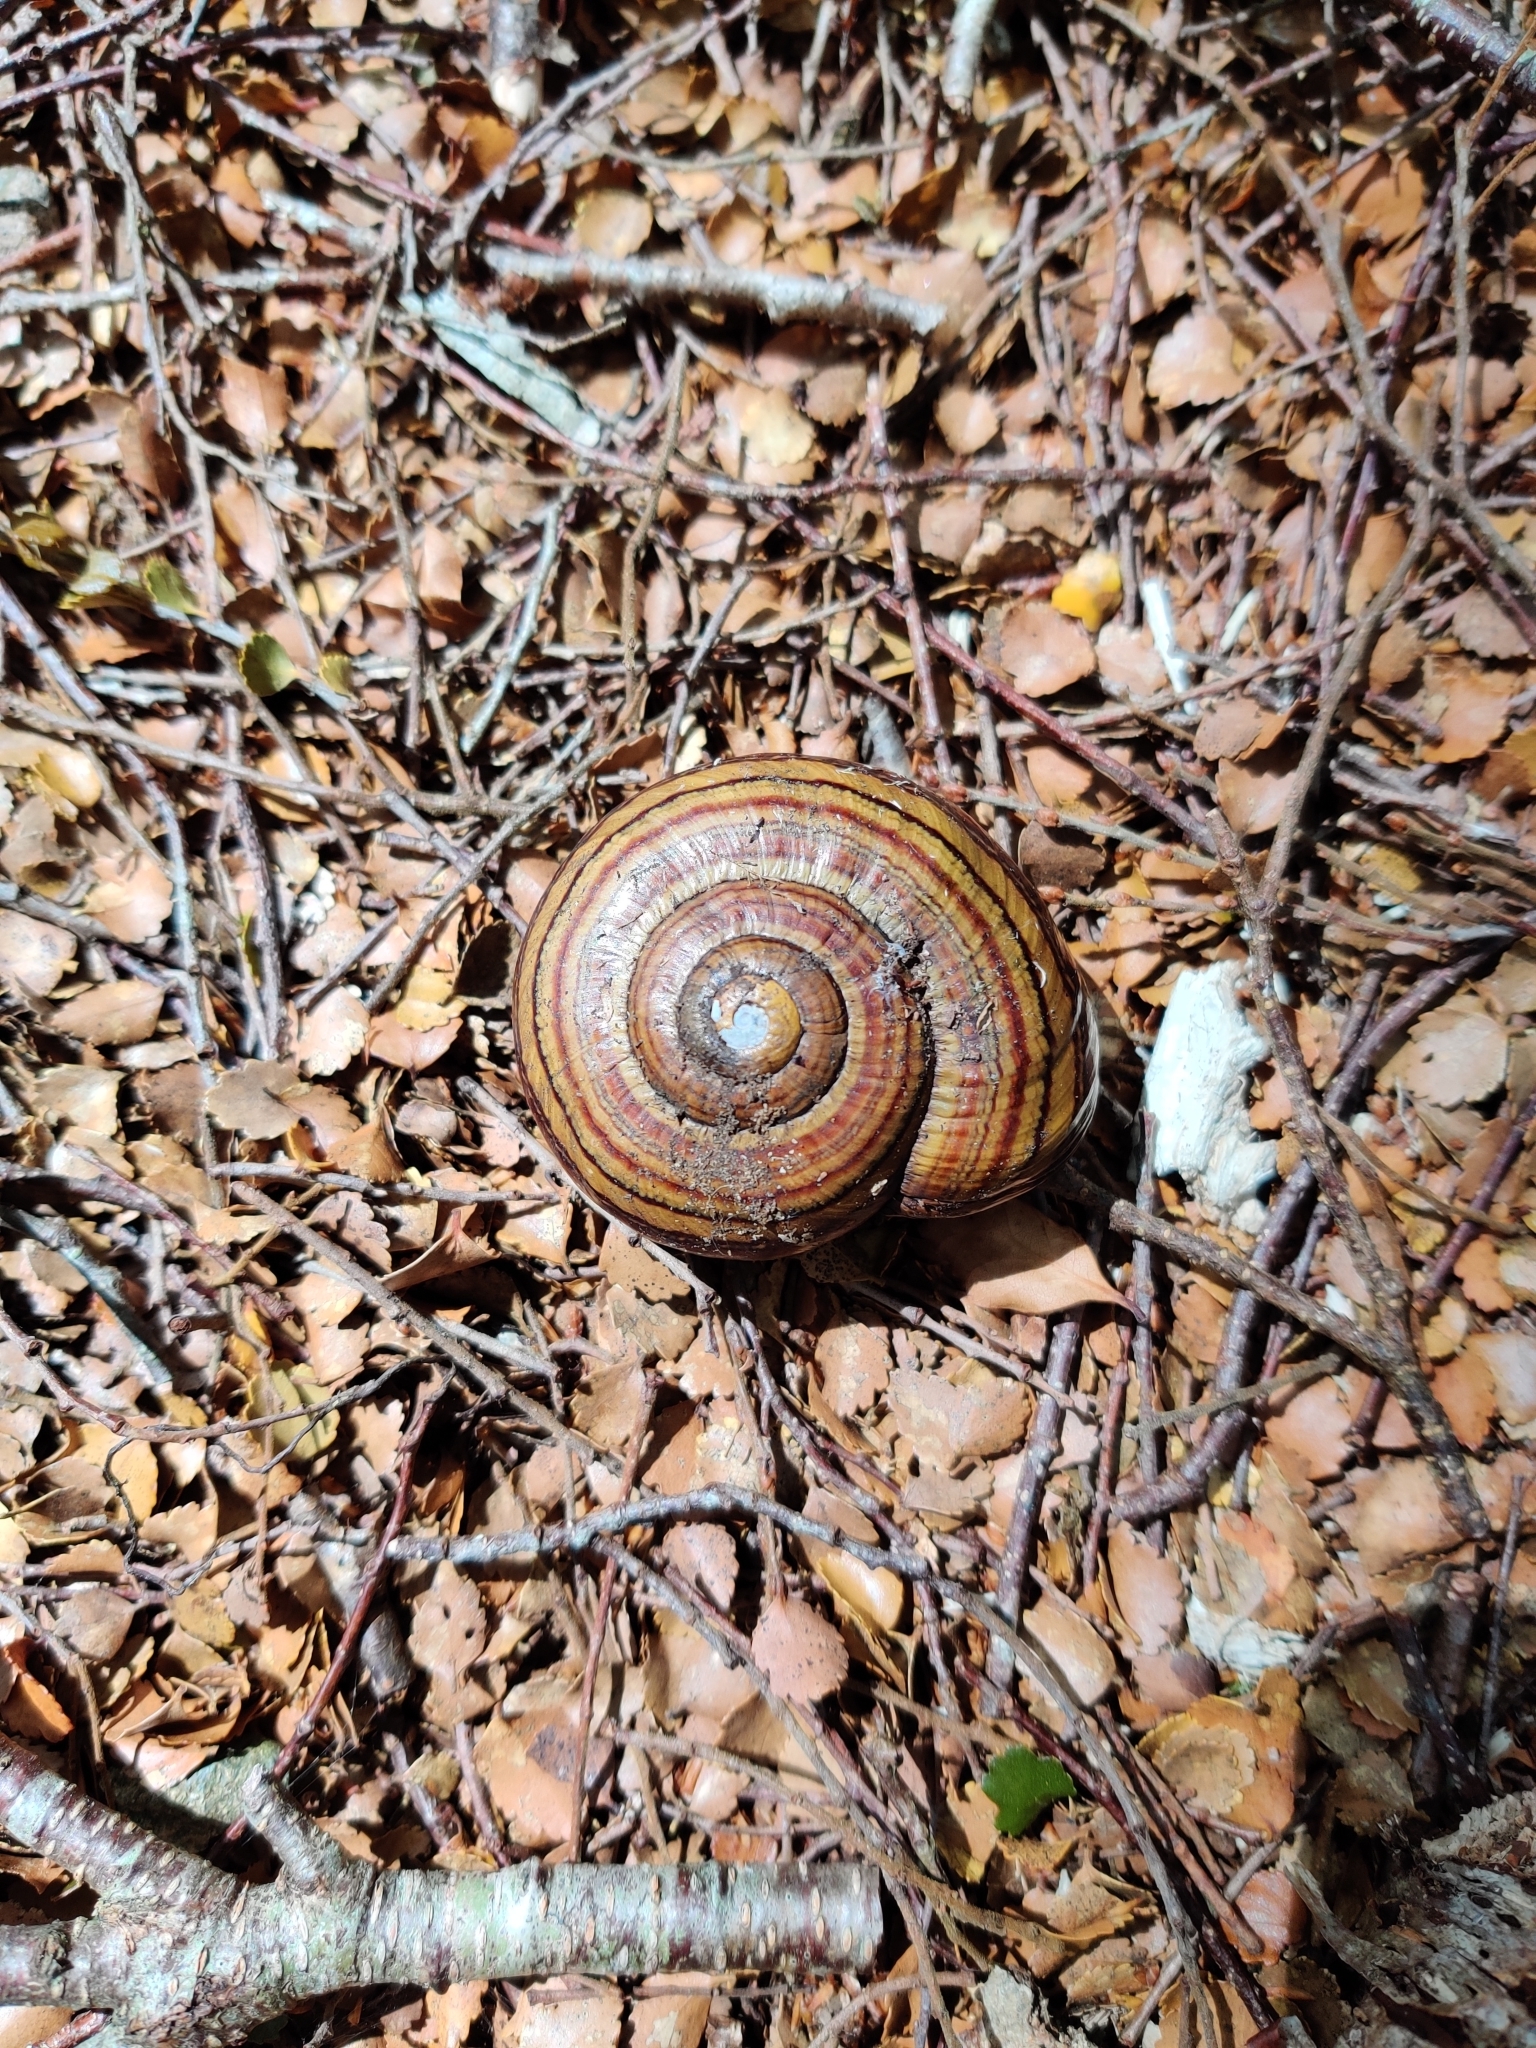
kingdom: Animalia
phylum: Mollusca
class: Gastropoda
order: Stylommatophora
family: Rhytididae
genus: Powelliphanta
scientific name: Powelliphanta hochstetteri
